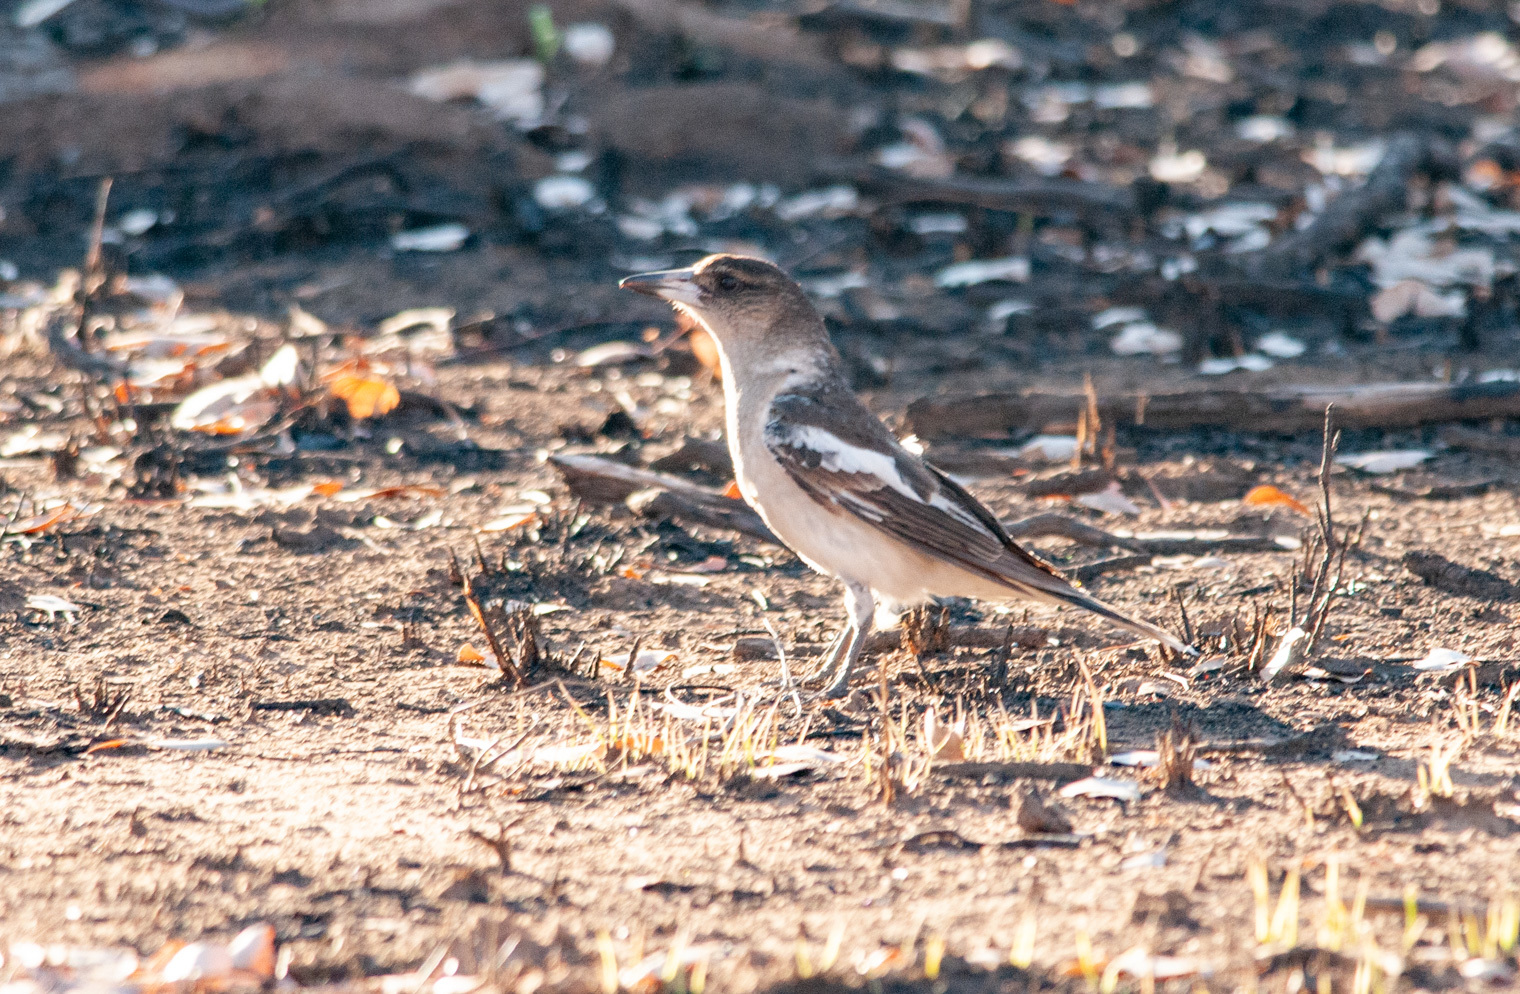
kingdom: Animalia
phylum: Chordata
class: Aves
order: Passeriformes
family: Cracticidae
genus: Cracticus
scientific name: Cracticus nigrogularis
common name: Pied butcherbird
